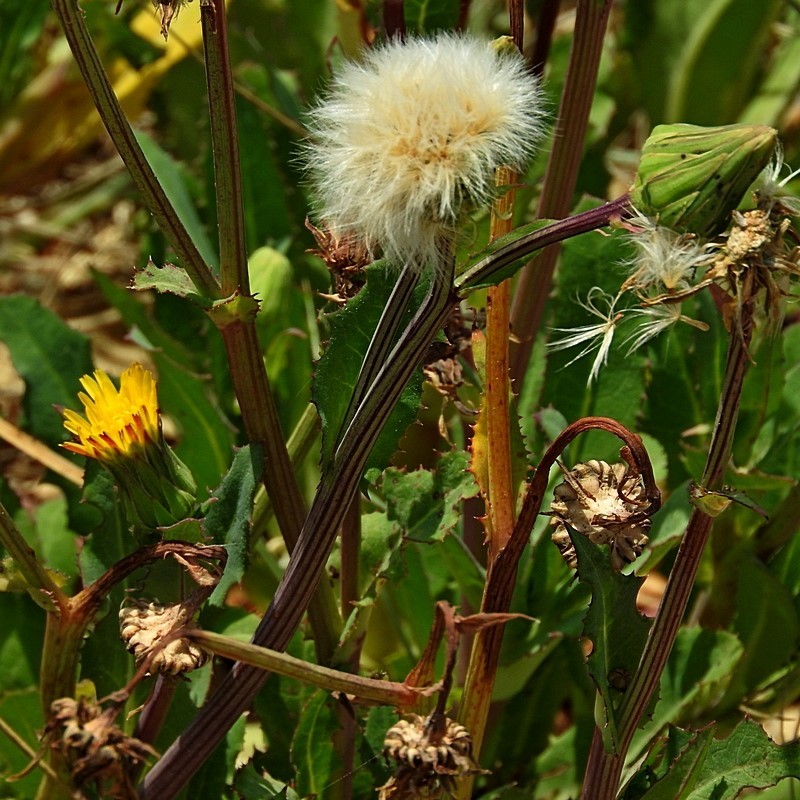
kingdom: Plantae
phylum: Tracheophyta
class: Magnoliopsida
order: Asterales
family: Asteraceae
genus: Sonchus
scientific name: Sonchus megalocarpus
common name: Dune thistle
